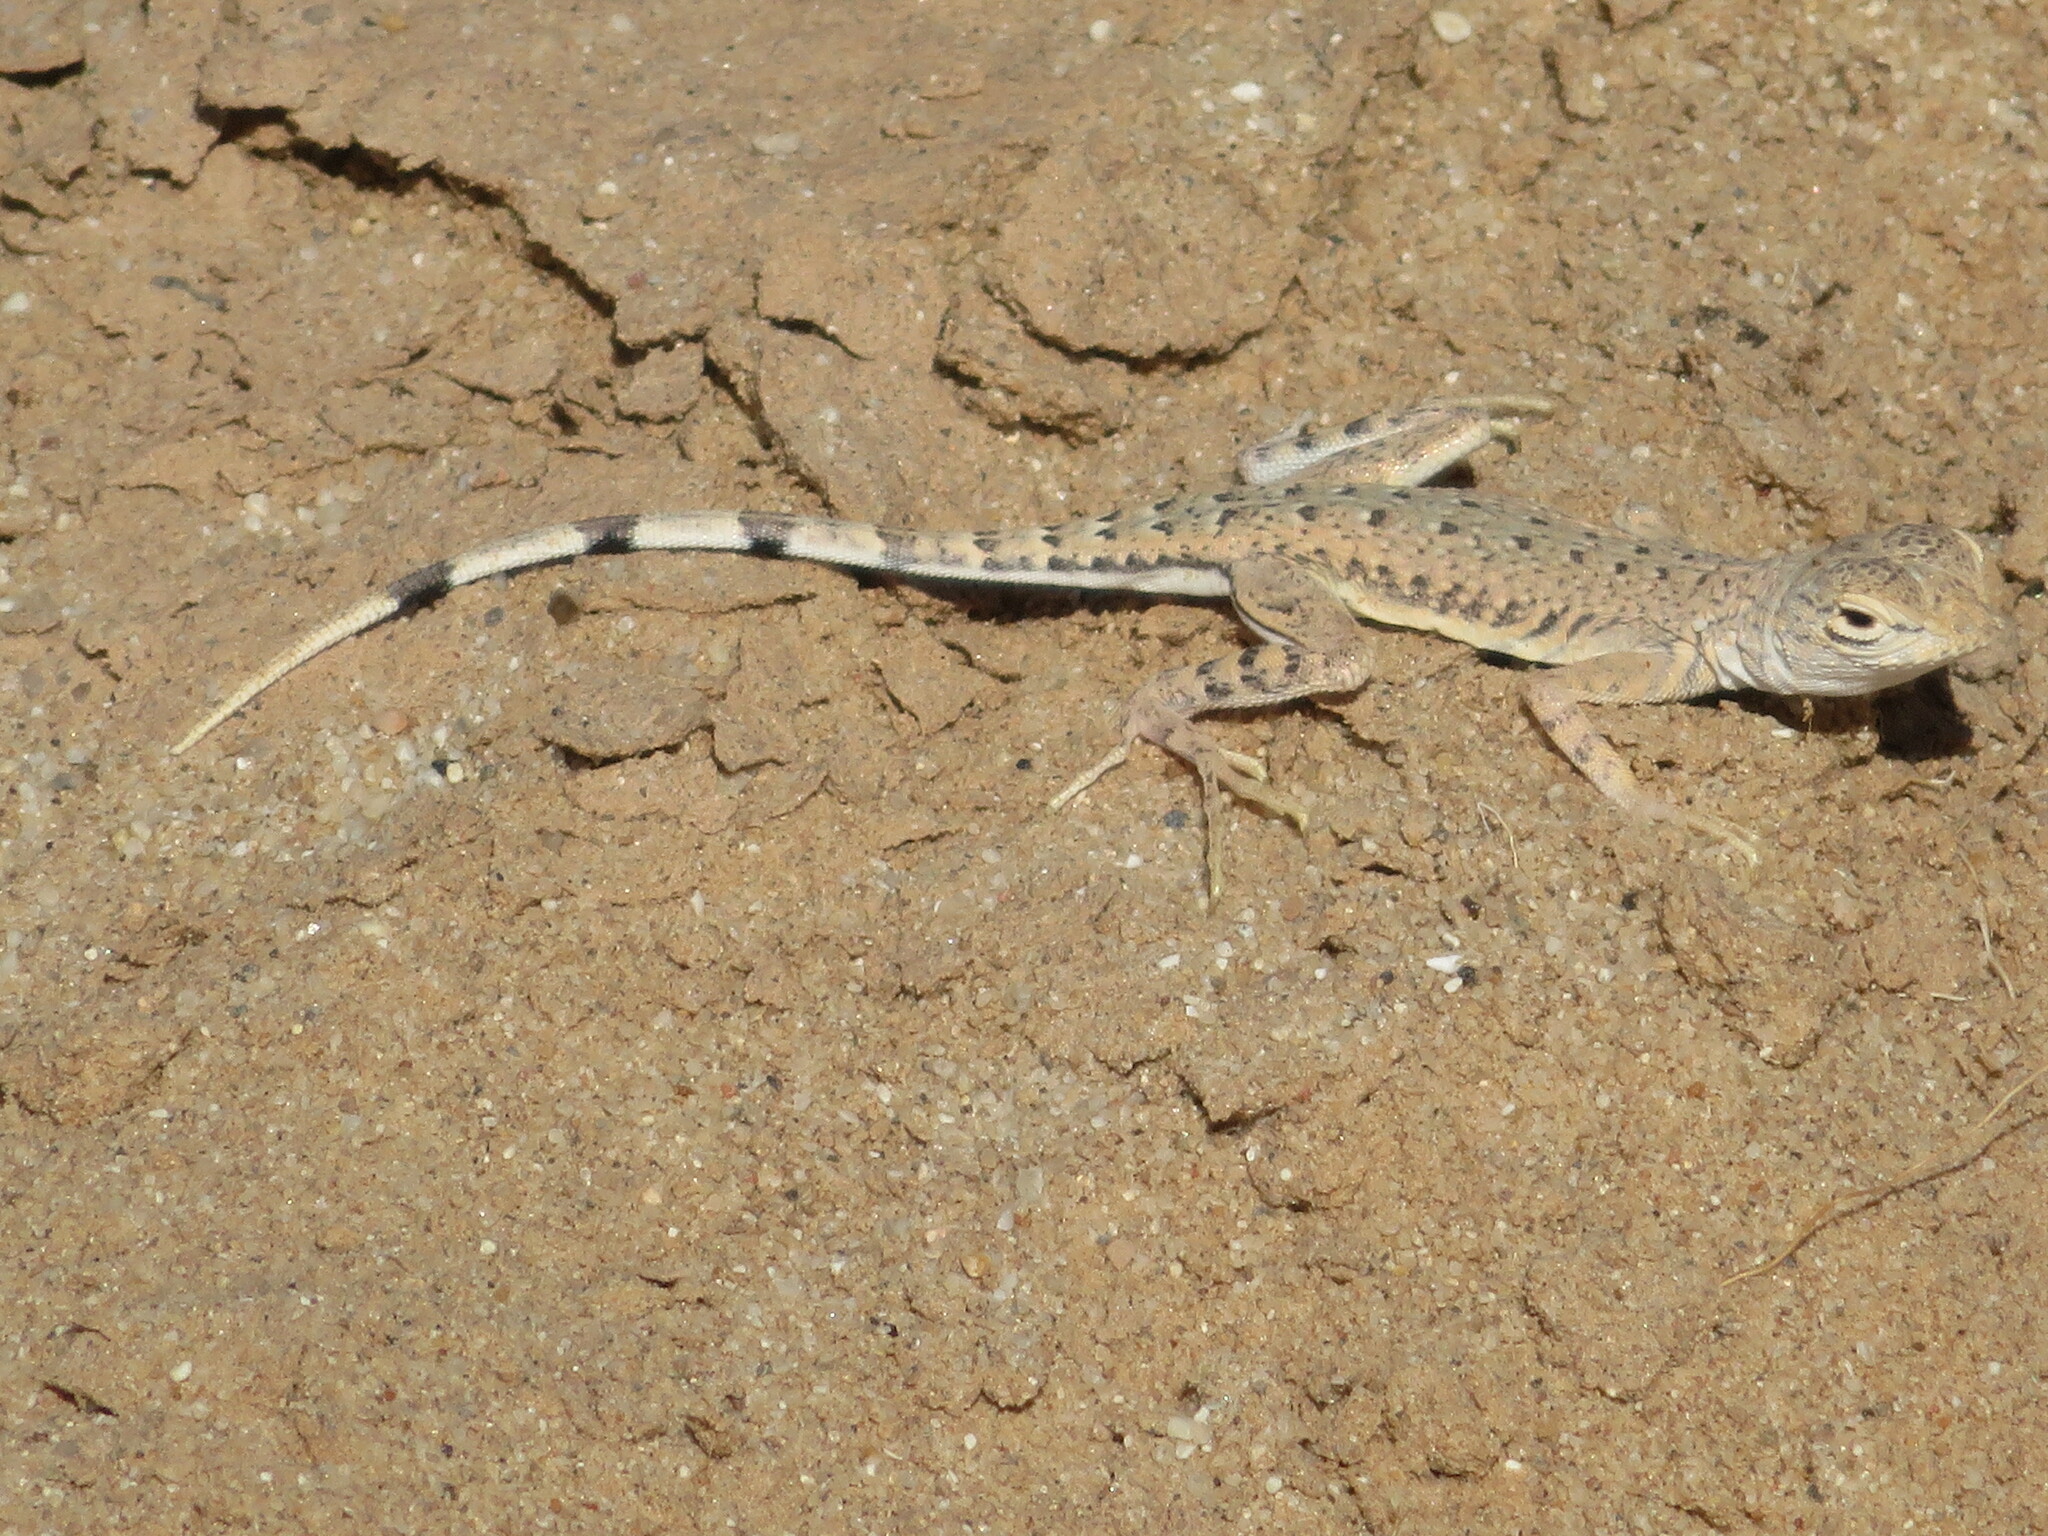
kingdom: Animalia
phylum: Chordata
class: Squamata
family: Phrynosomatidae
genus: Callisaurus
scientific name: Callisaurus draconoides
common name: Zebra-tailed lizard
